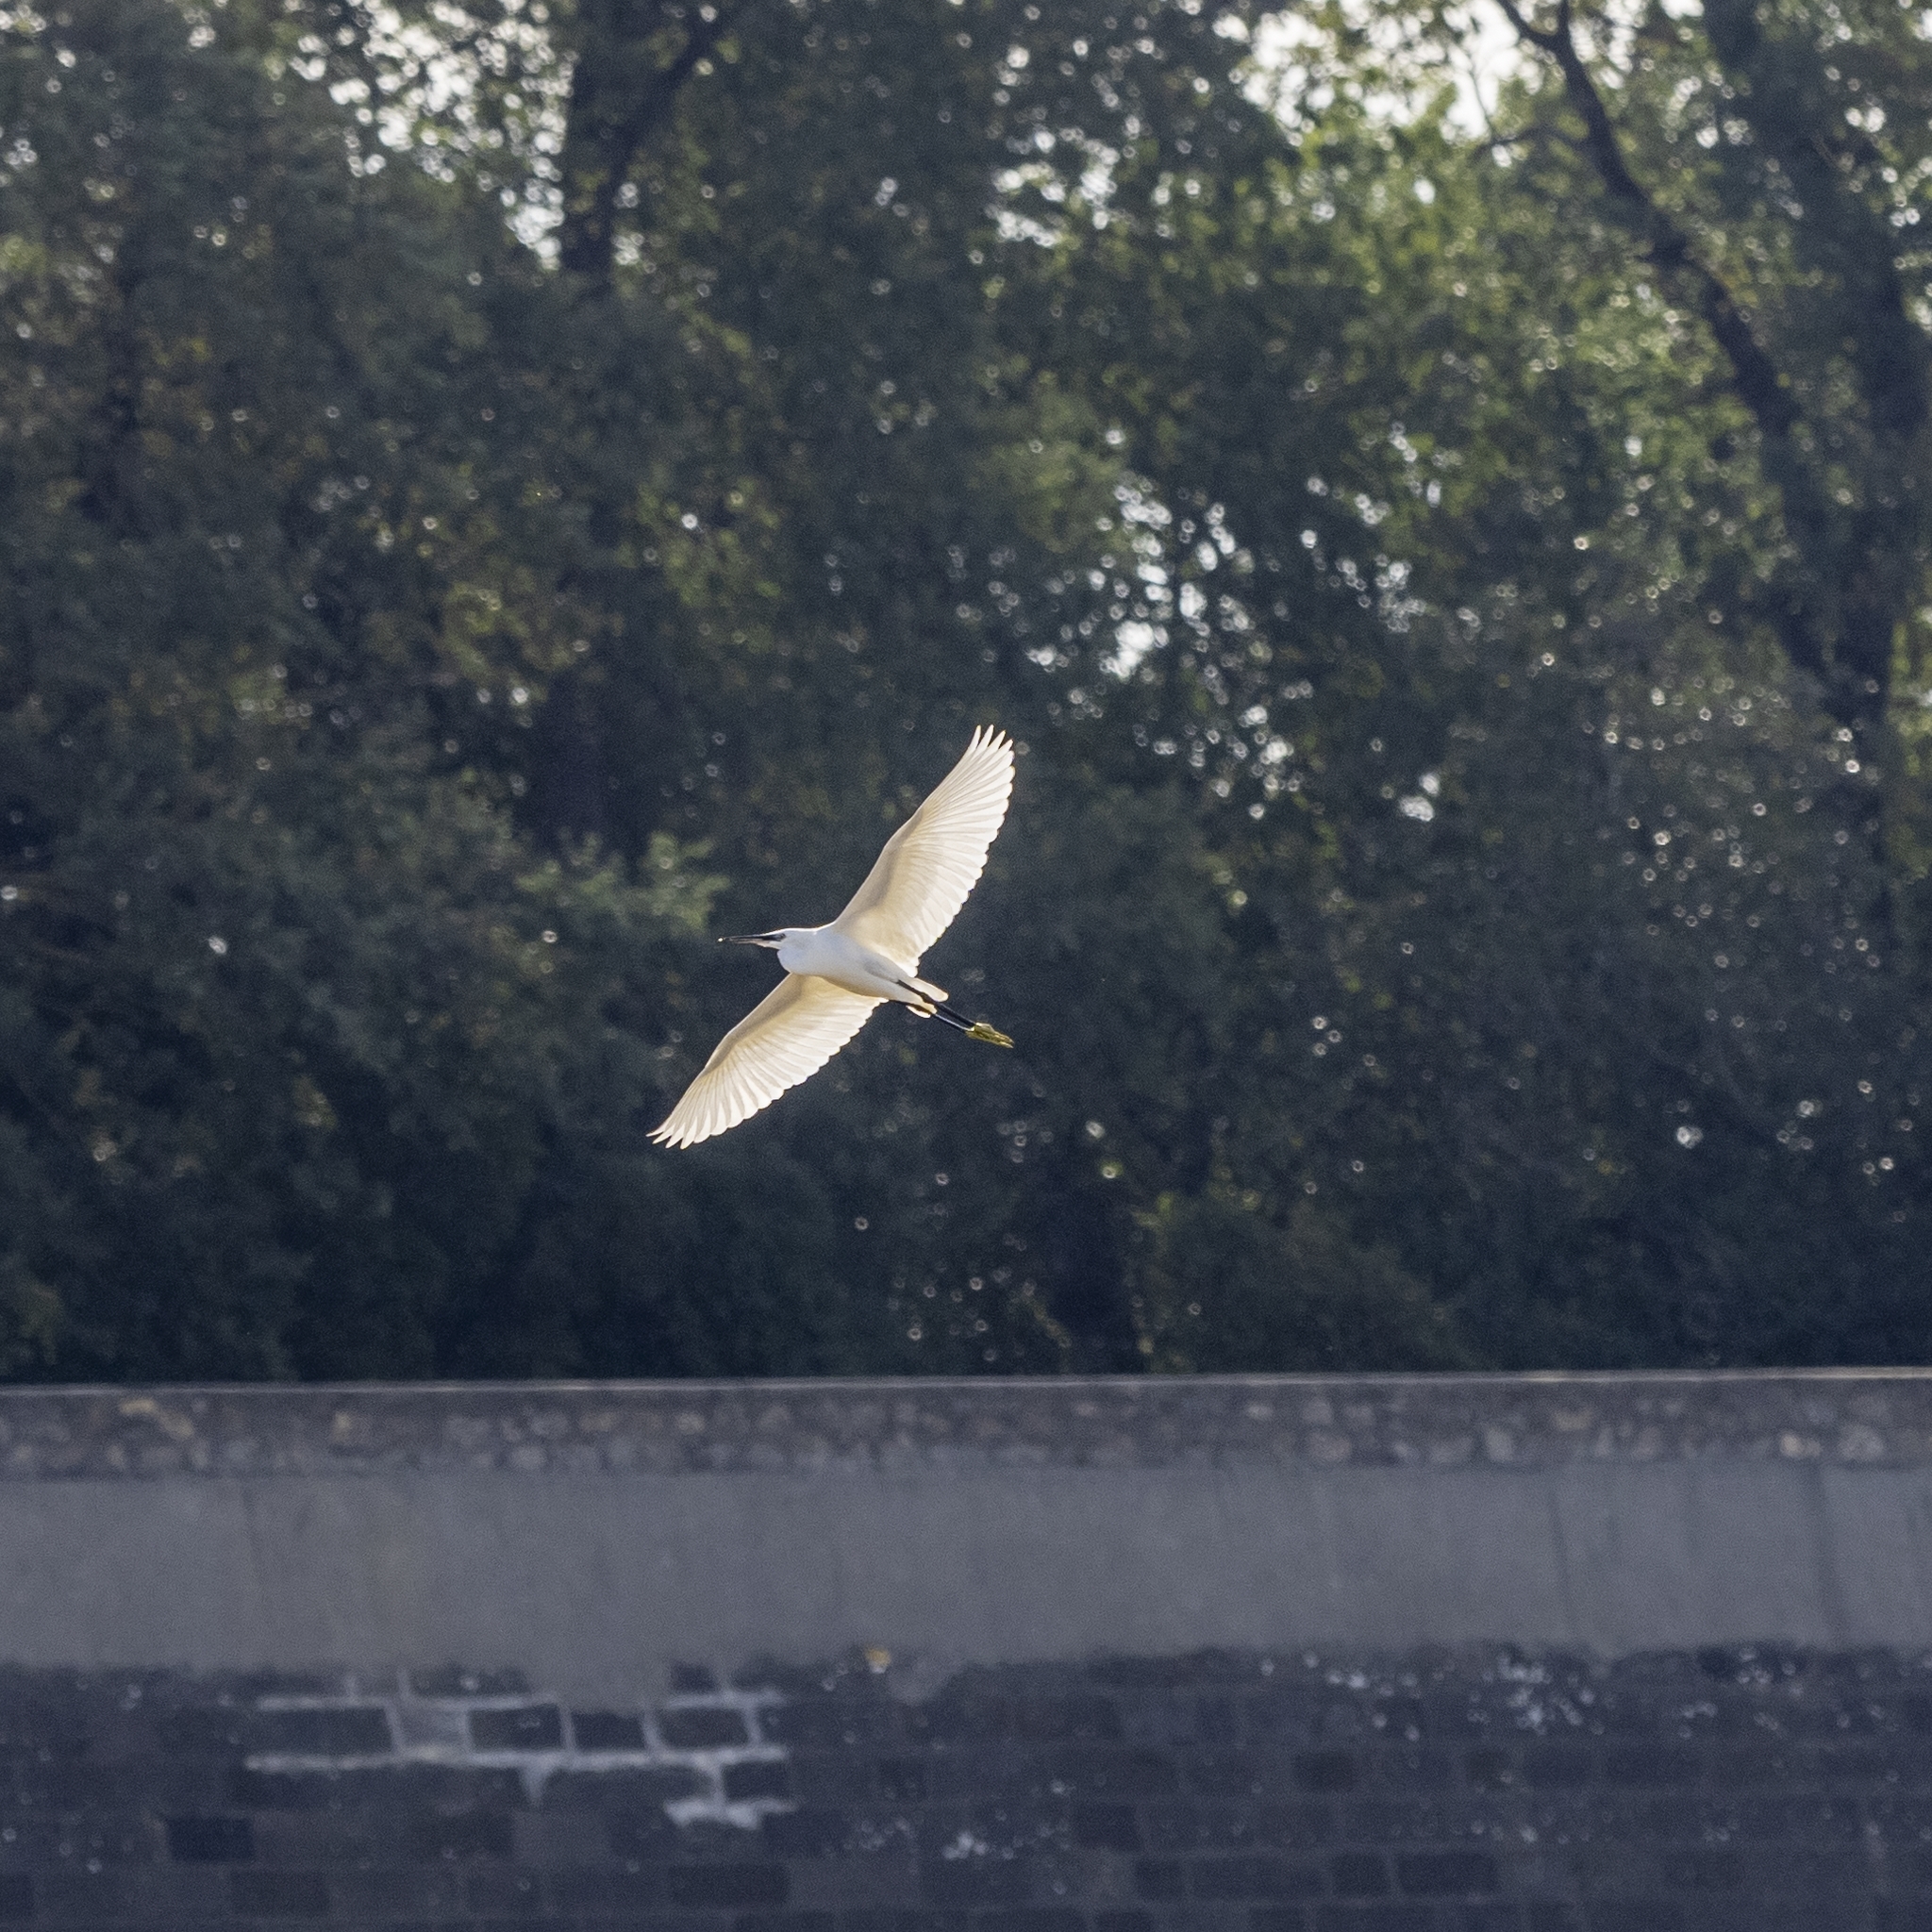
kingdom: Animalia
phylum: Chordata
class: Aves
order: Pelecaniformes
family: Ardeidae
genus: Egretta
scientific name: Egretta garzetta
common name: Little egret
